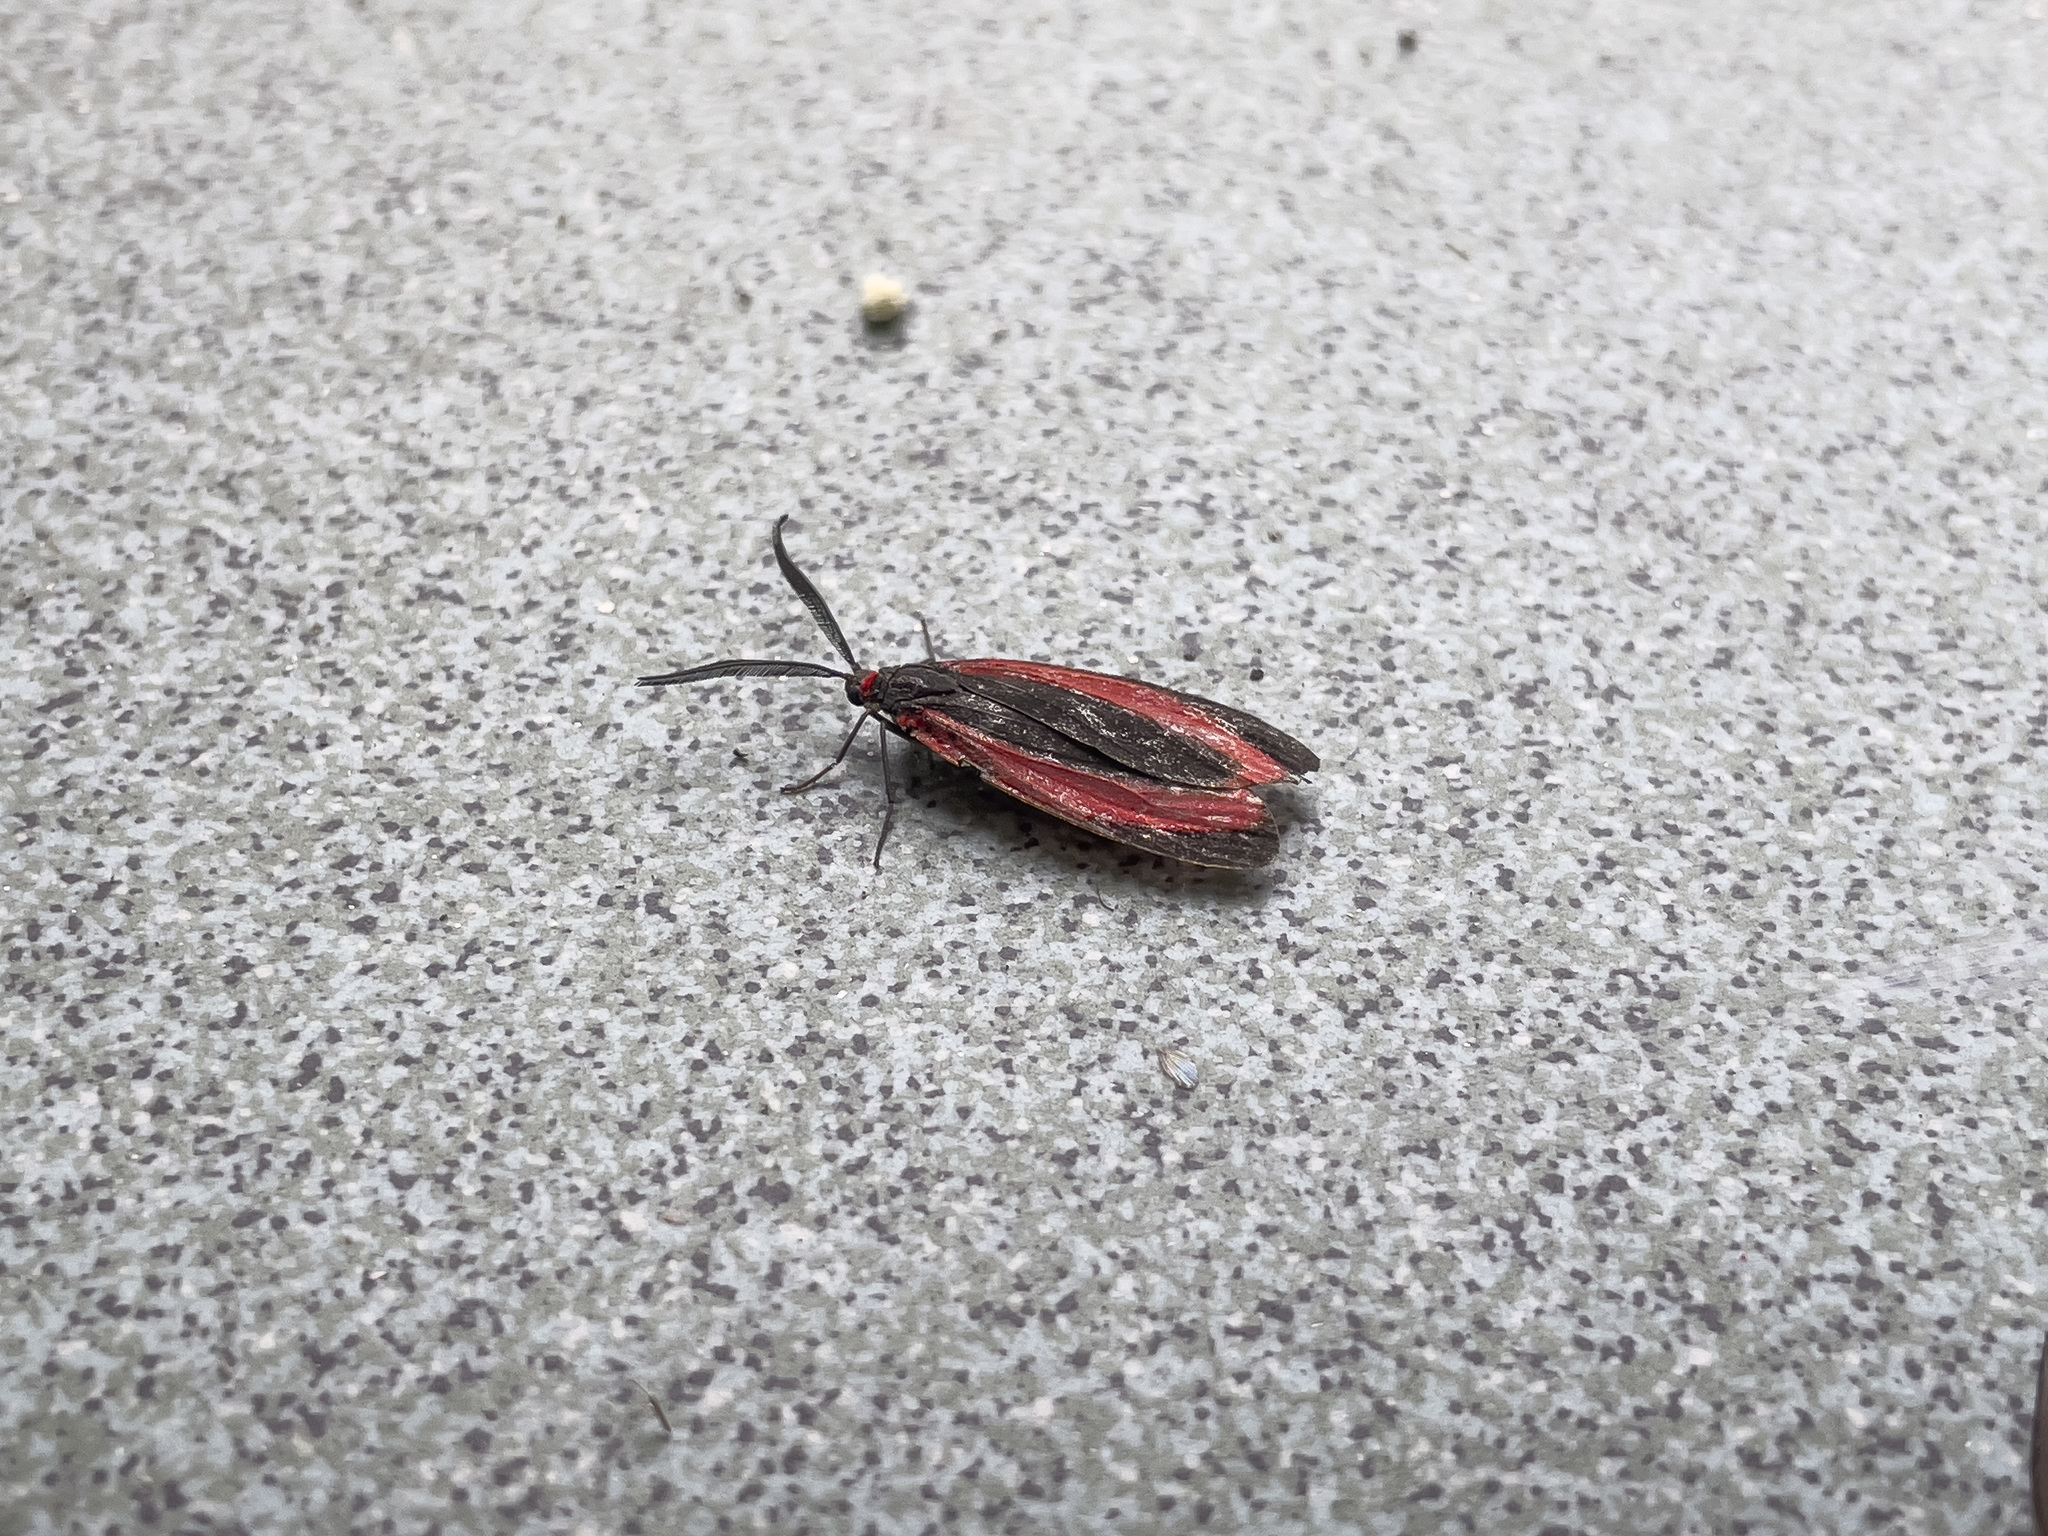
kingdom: Animalia
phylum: Arthropoda
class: Insecta
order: Lepidoptera
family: Zygaenidae
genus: Retina
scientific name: Retina rubrivitta
